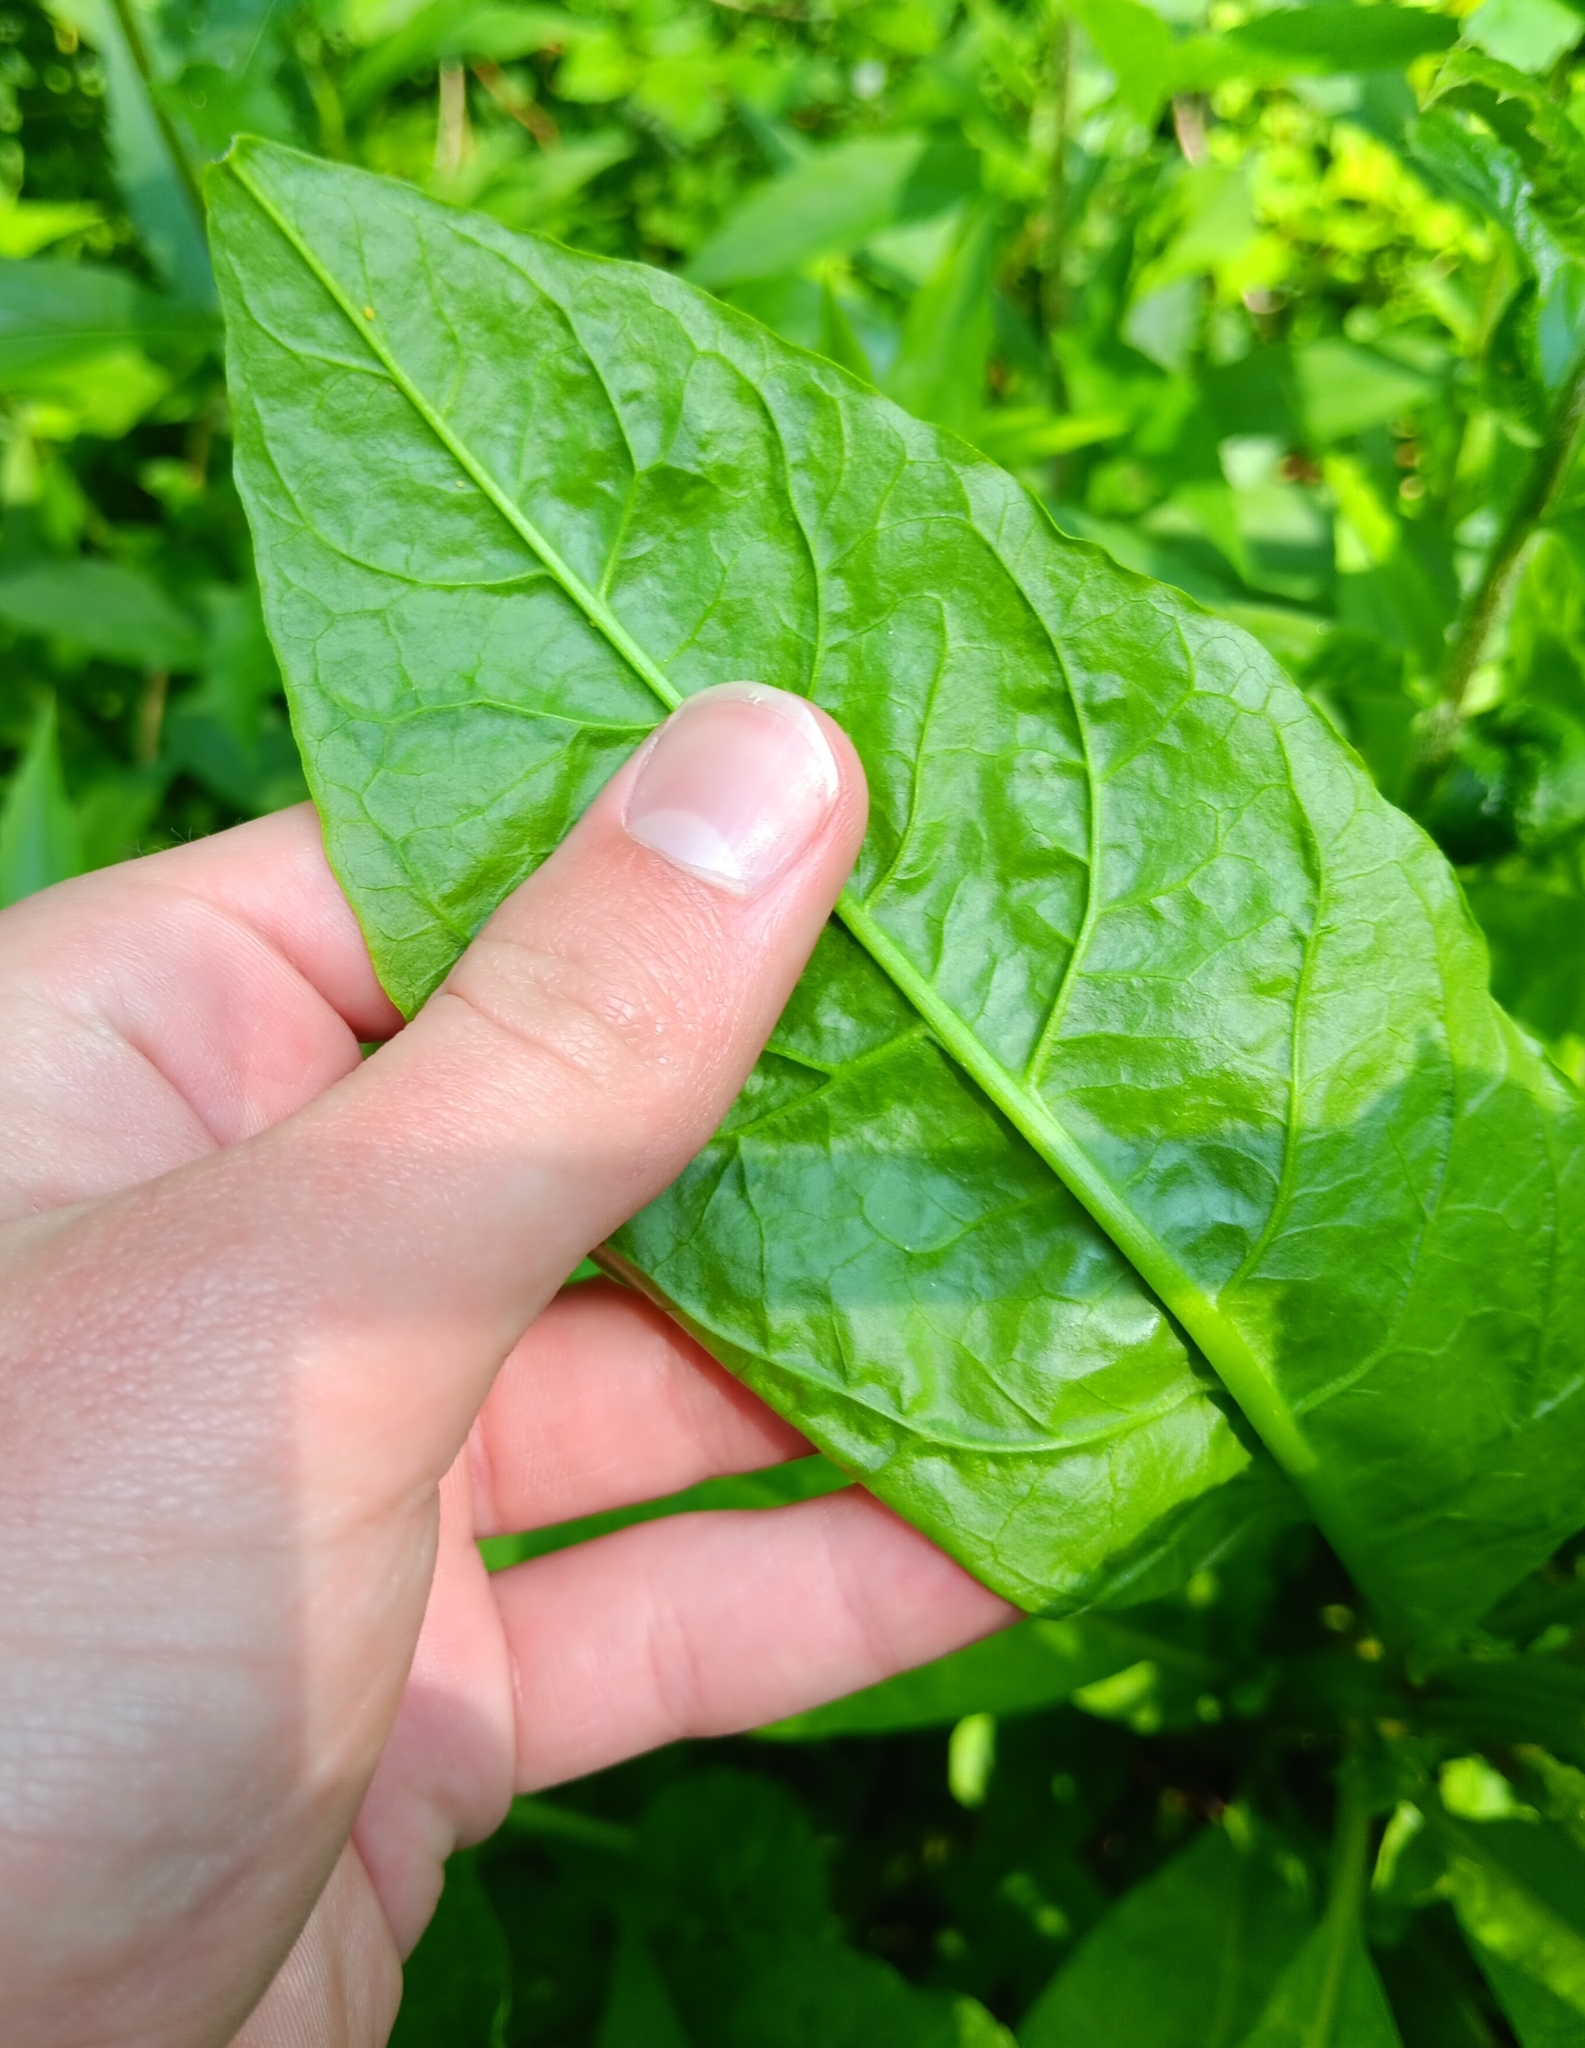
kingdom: Plantae
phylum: Tracheophyta
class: Magnoliopsida
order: Caryophyllales
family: Phytolaccaceae
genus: Phytolacca
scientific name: Phytolacca americana
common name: American pokeweed
